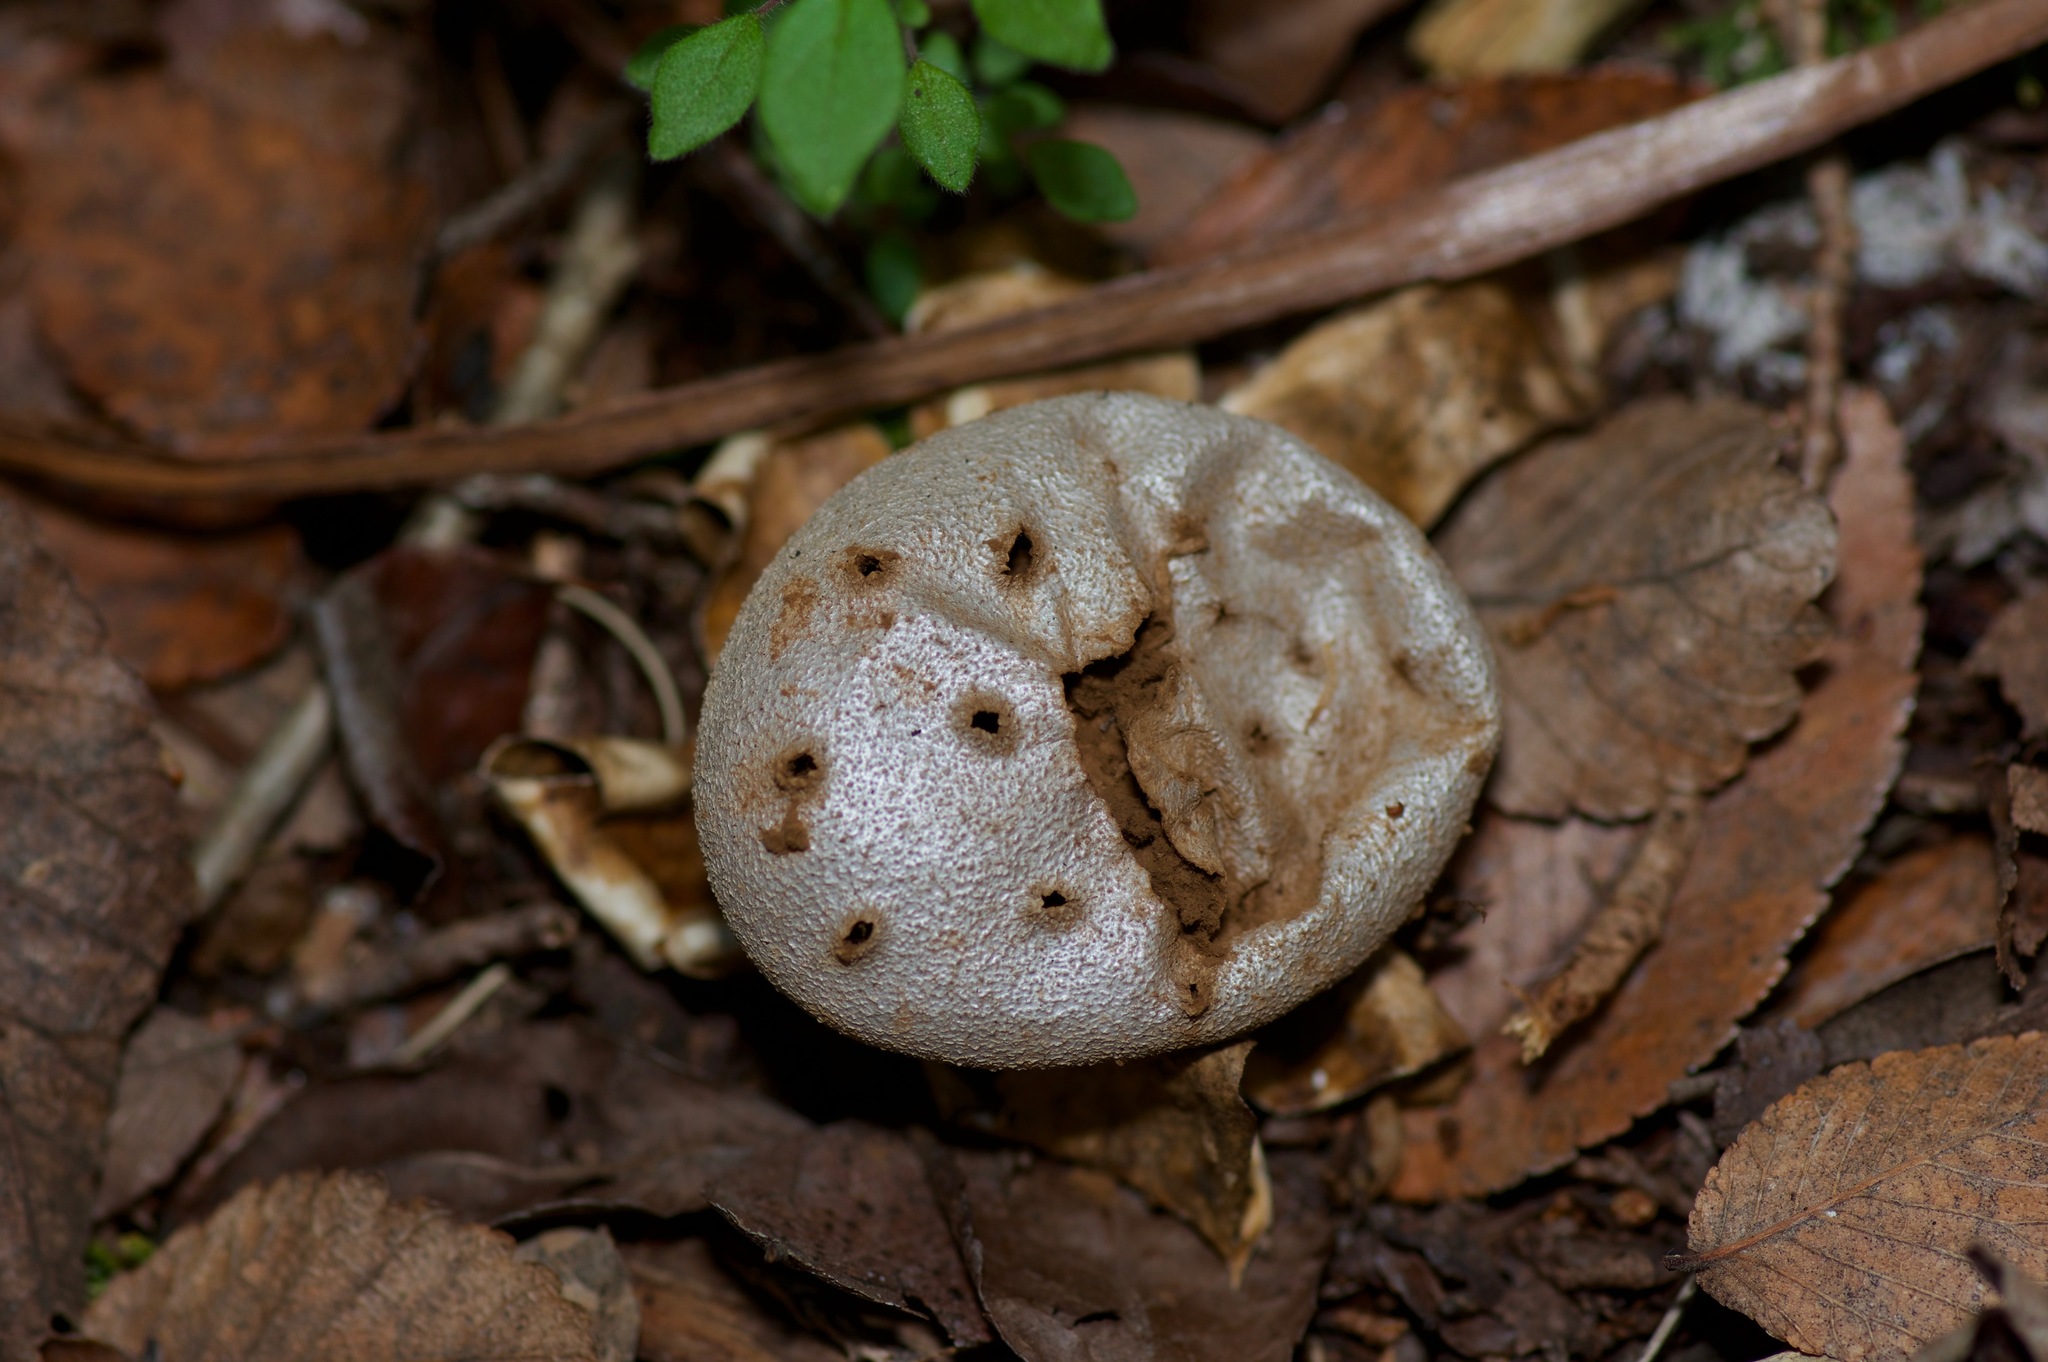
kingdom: Fungi
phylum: Basidiomycota
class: Agaricomycetes
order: Geastrales
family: Geastraceae
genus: Myriostoma
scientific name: Myriostoma coliforme
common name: Pepper pot
